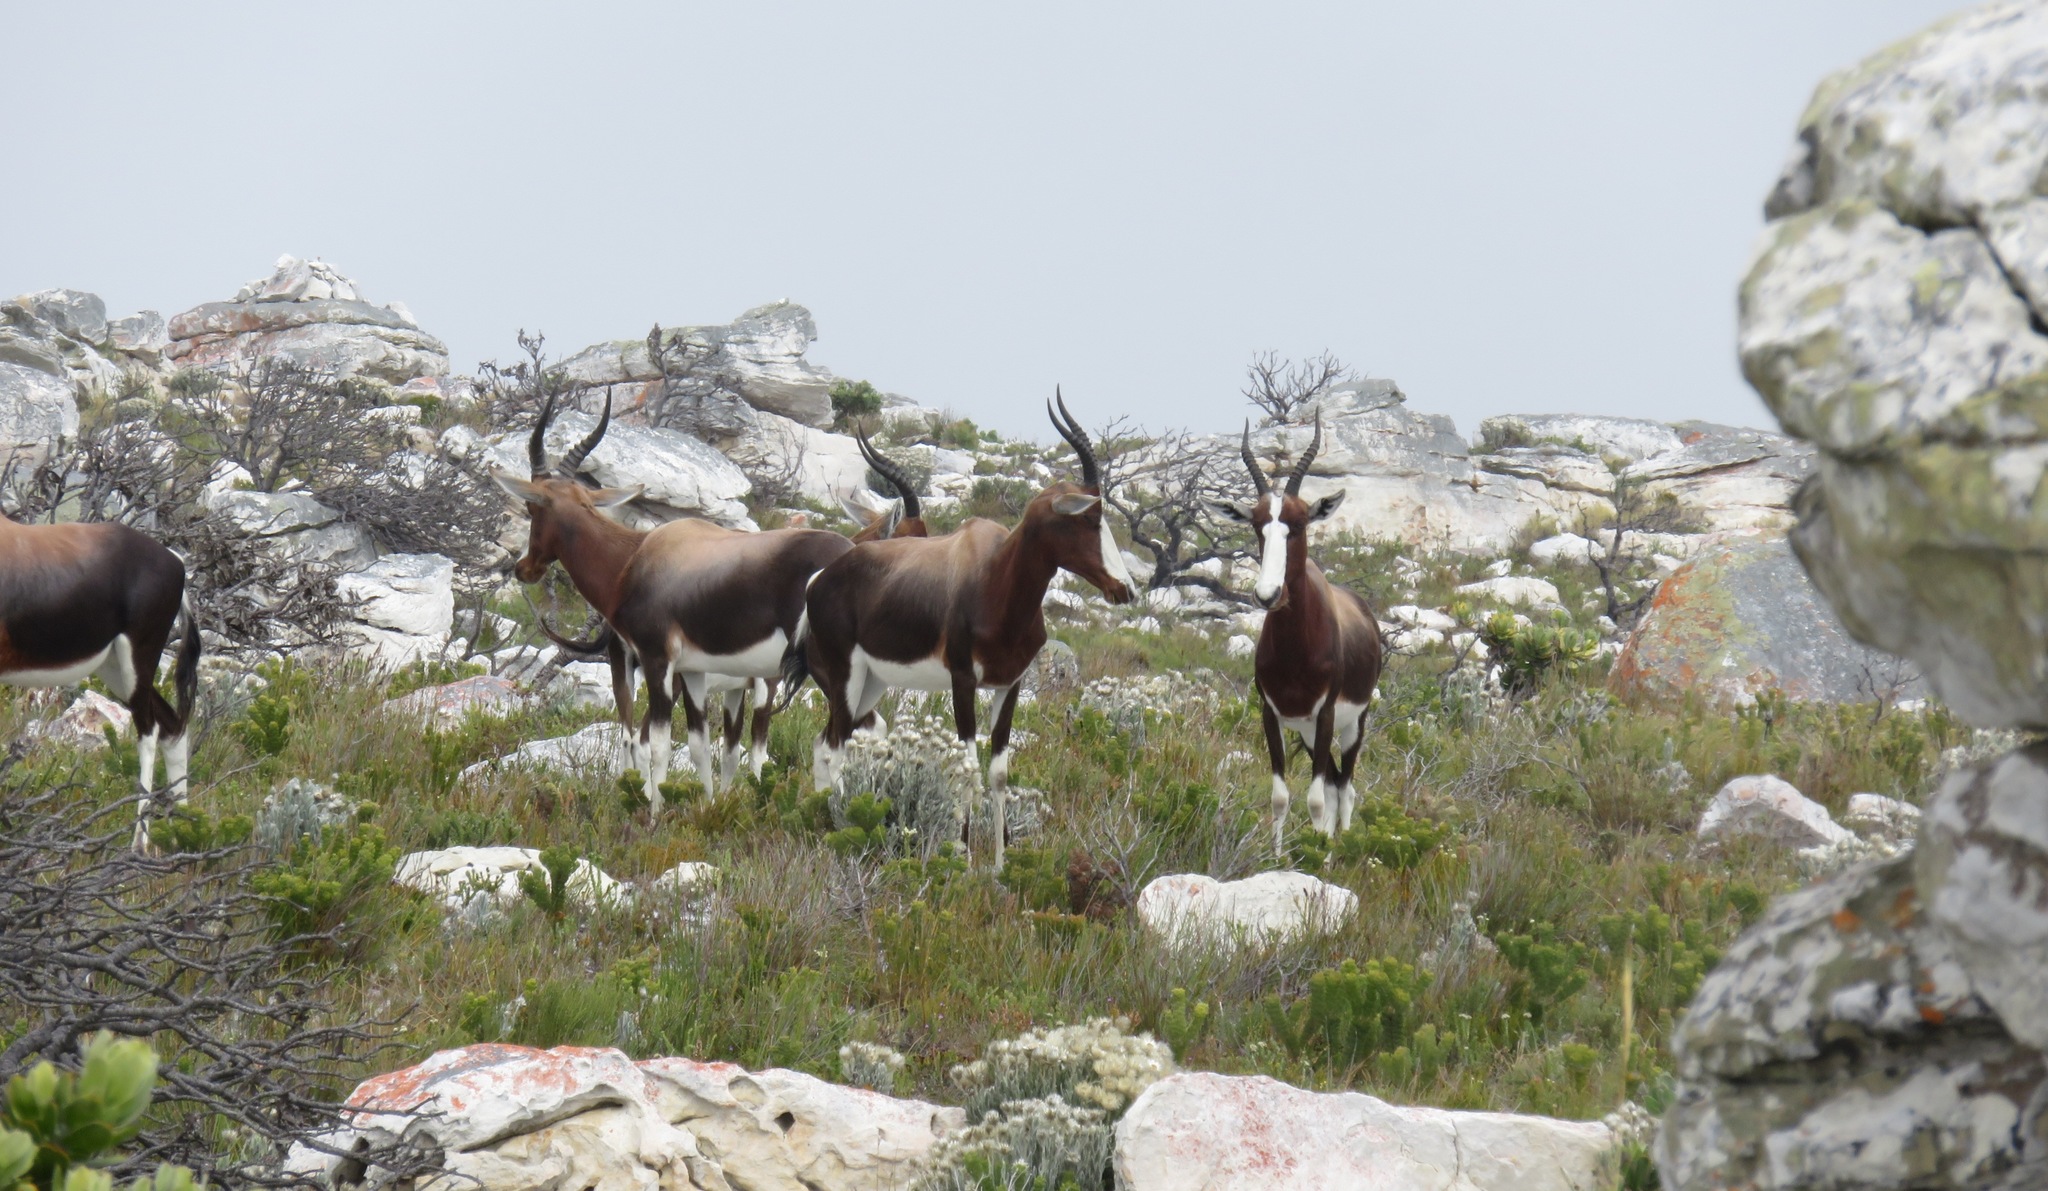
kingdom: Animalia
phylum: Chordata
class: Mammalia
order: Artiodactyla
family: Bovidae
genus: Damaliscus
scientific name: Damaliscus pygargus
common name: Bontebok
